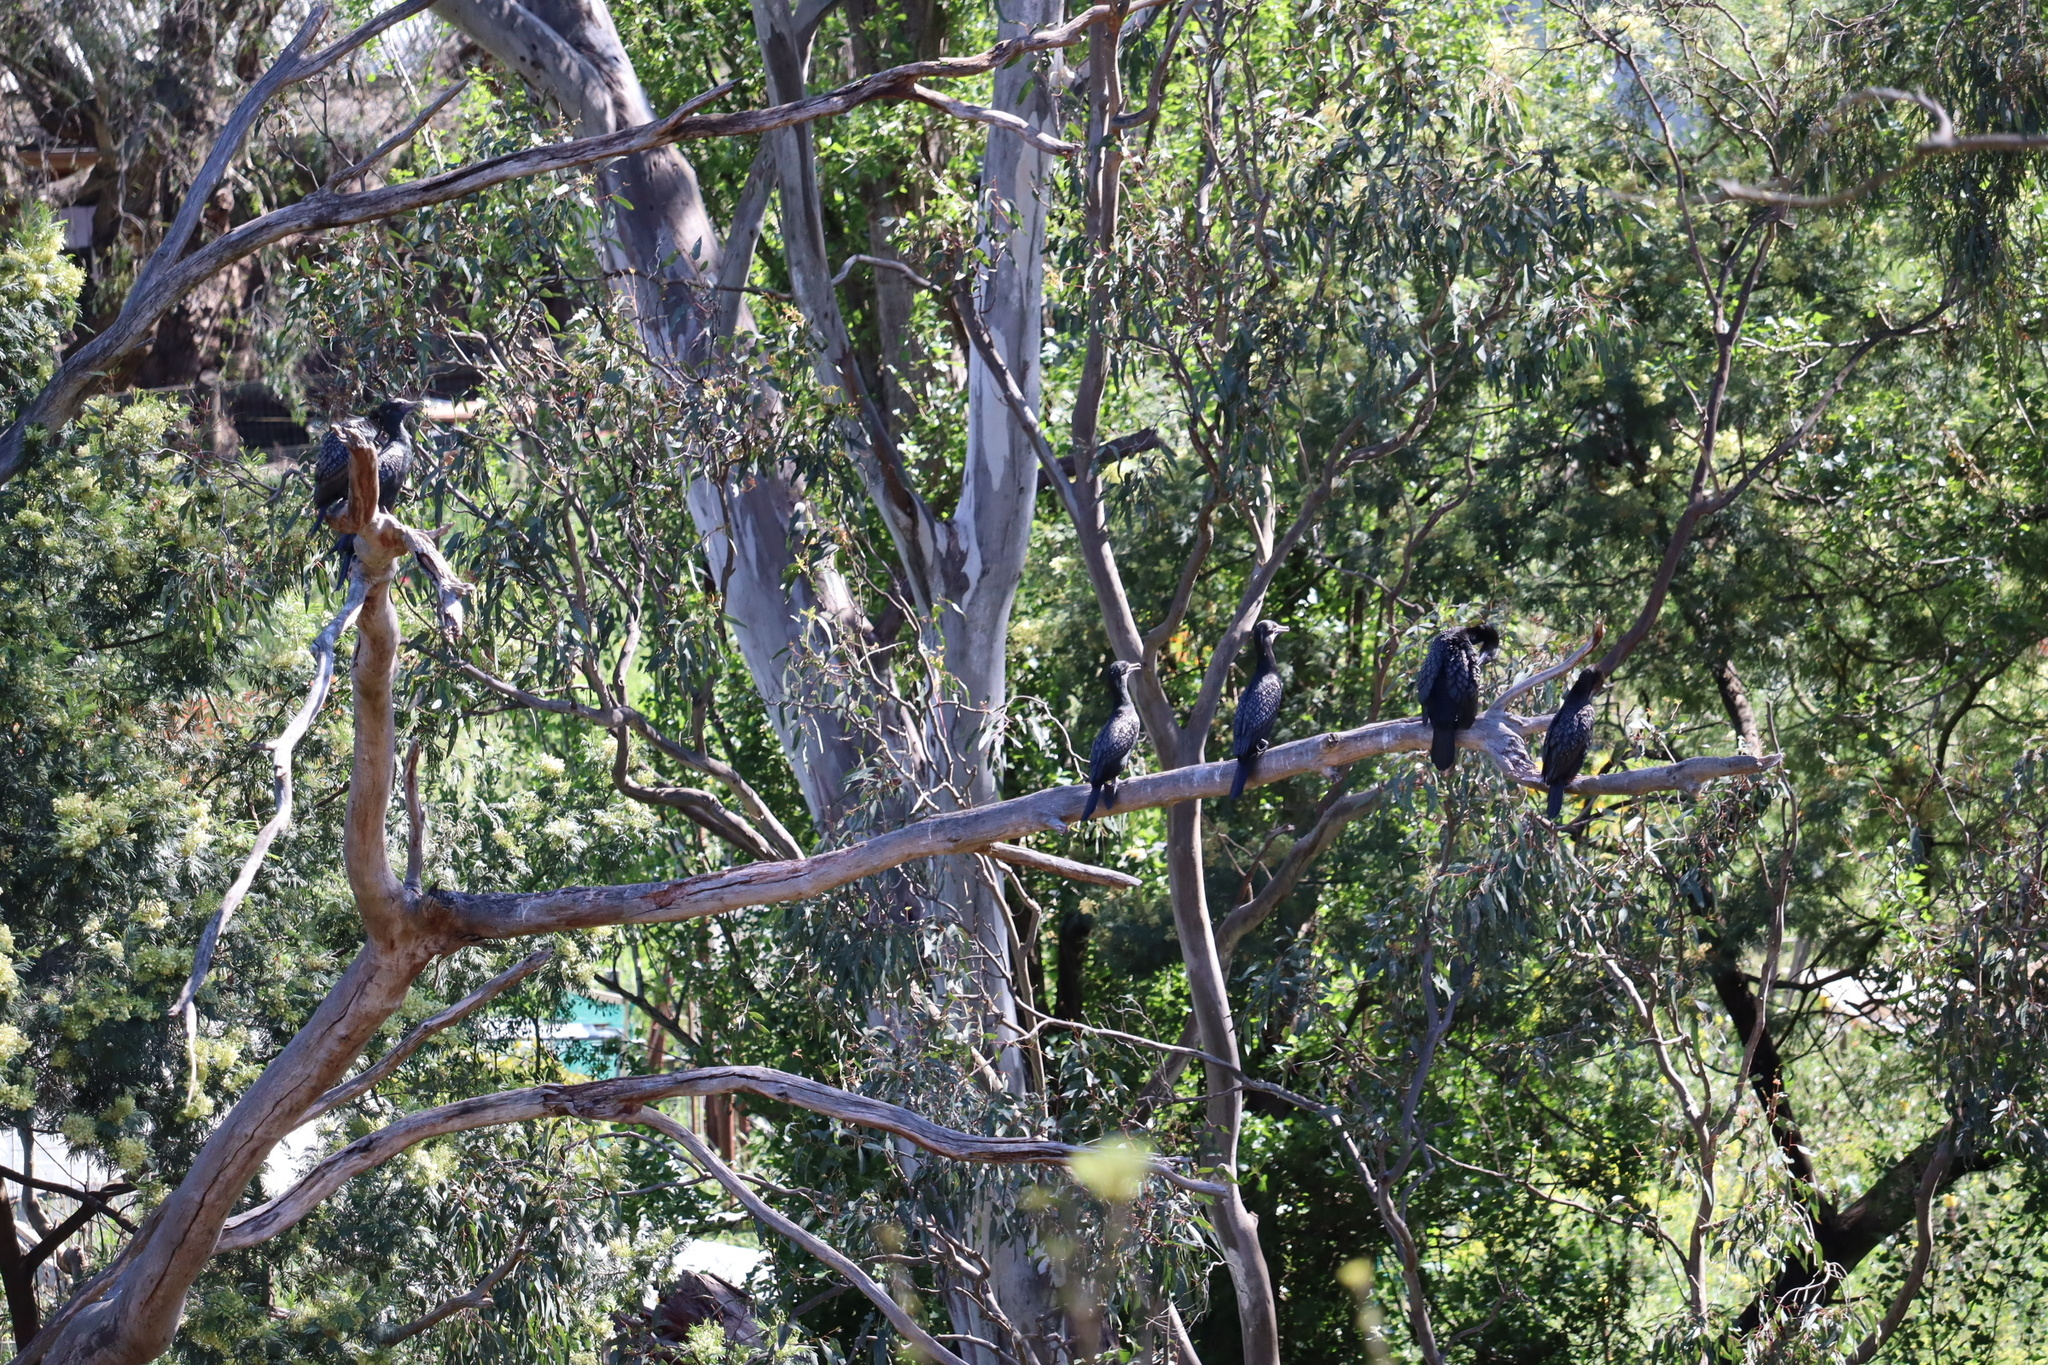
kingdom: Animalia
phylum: Chordata
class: Aves
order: Suliformes
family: Phalacrocoracidae
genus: Phalacrocorax
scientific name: Phalacrocorax sulcirostris
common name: Little black cormorant
